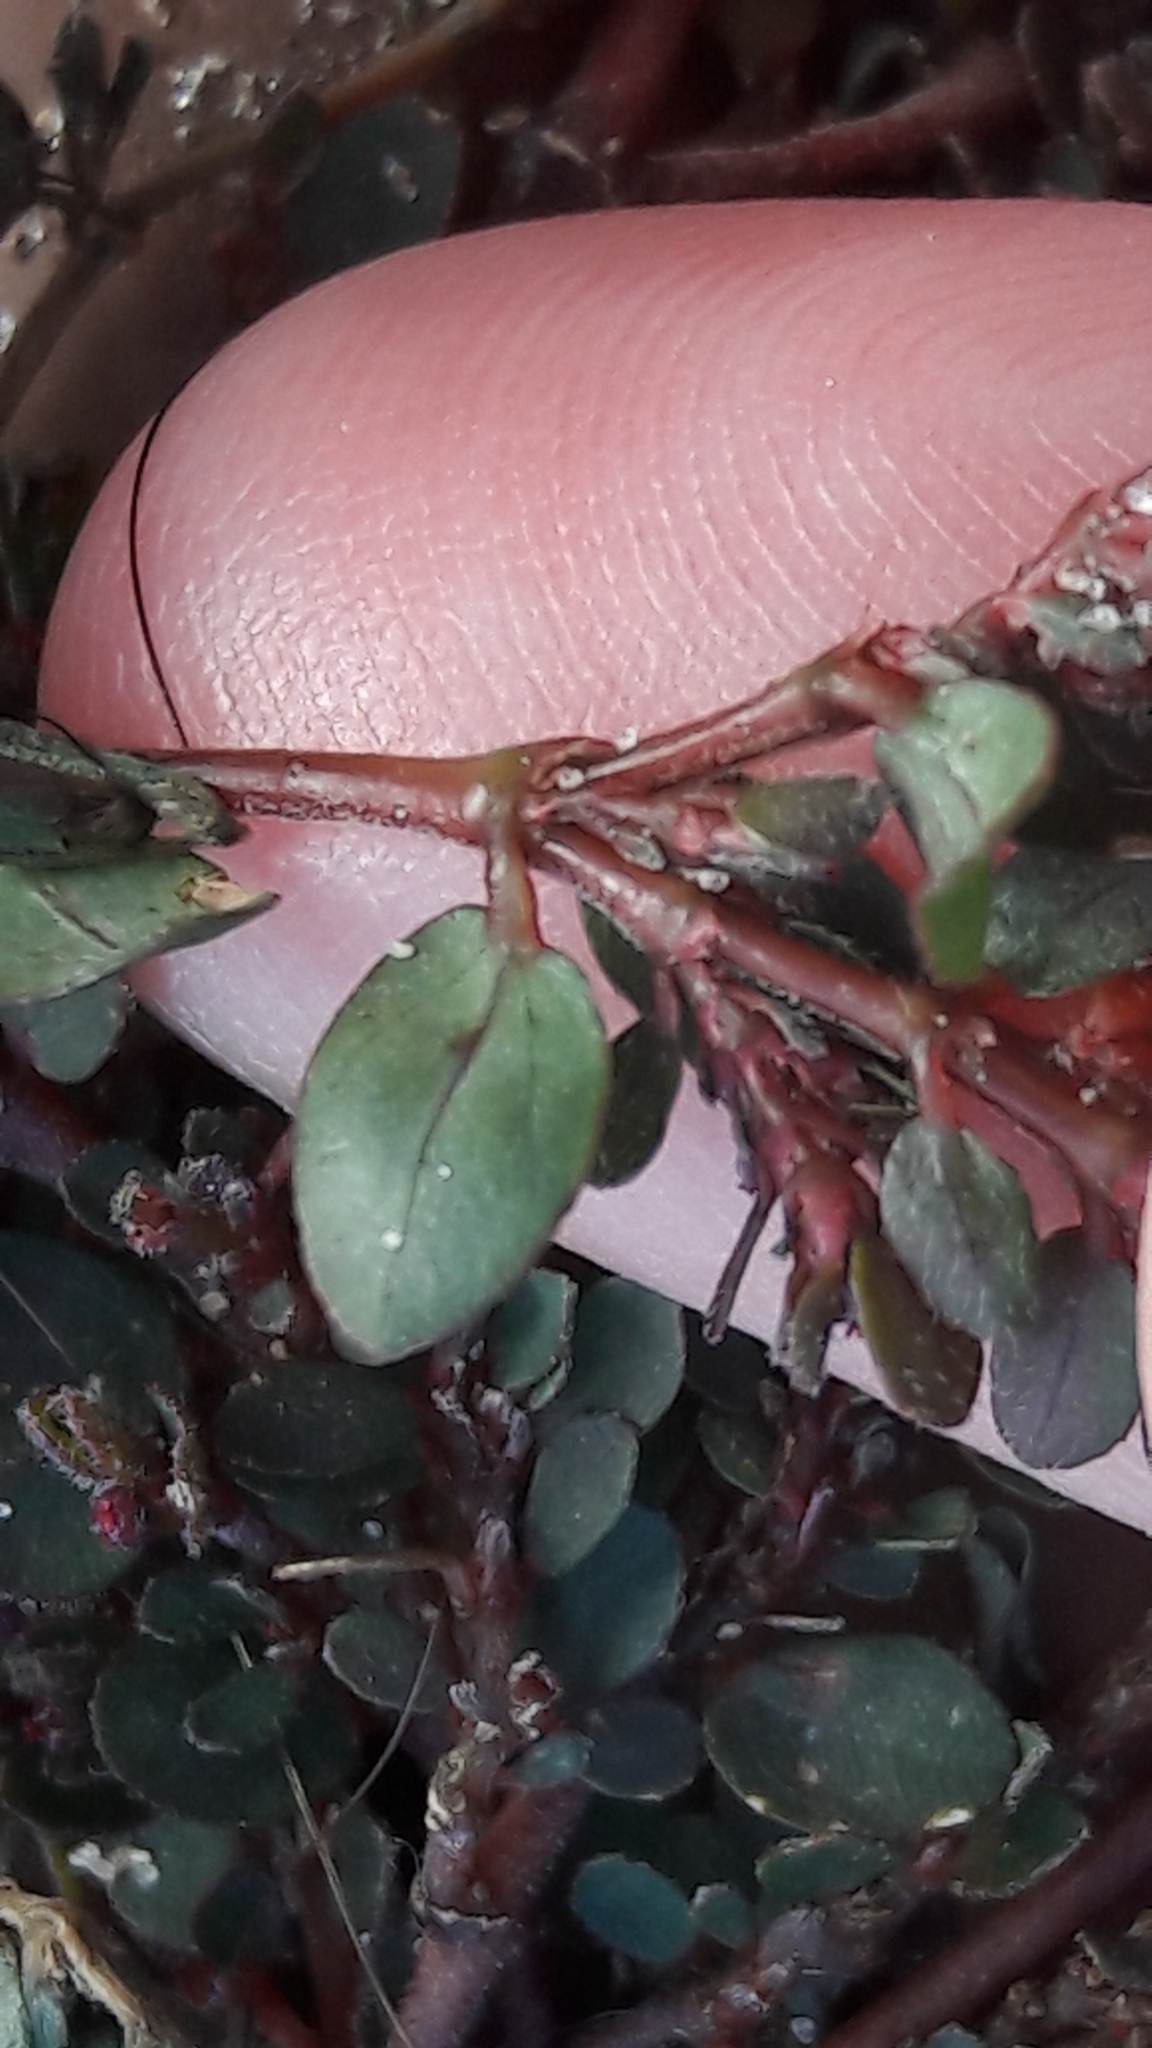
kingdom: Plantae
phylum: Tracheophyta
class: Magnoliopsida
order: Malpighiales
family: Euphorbiaceae
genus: Euphorbia
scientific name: Euphorbia prostrata
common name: Prostrate sandmat
